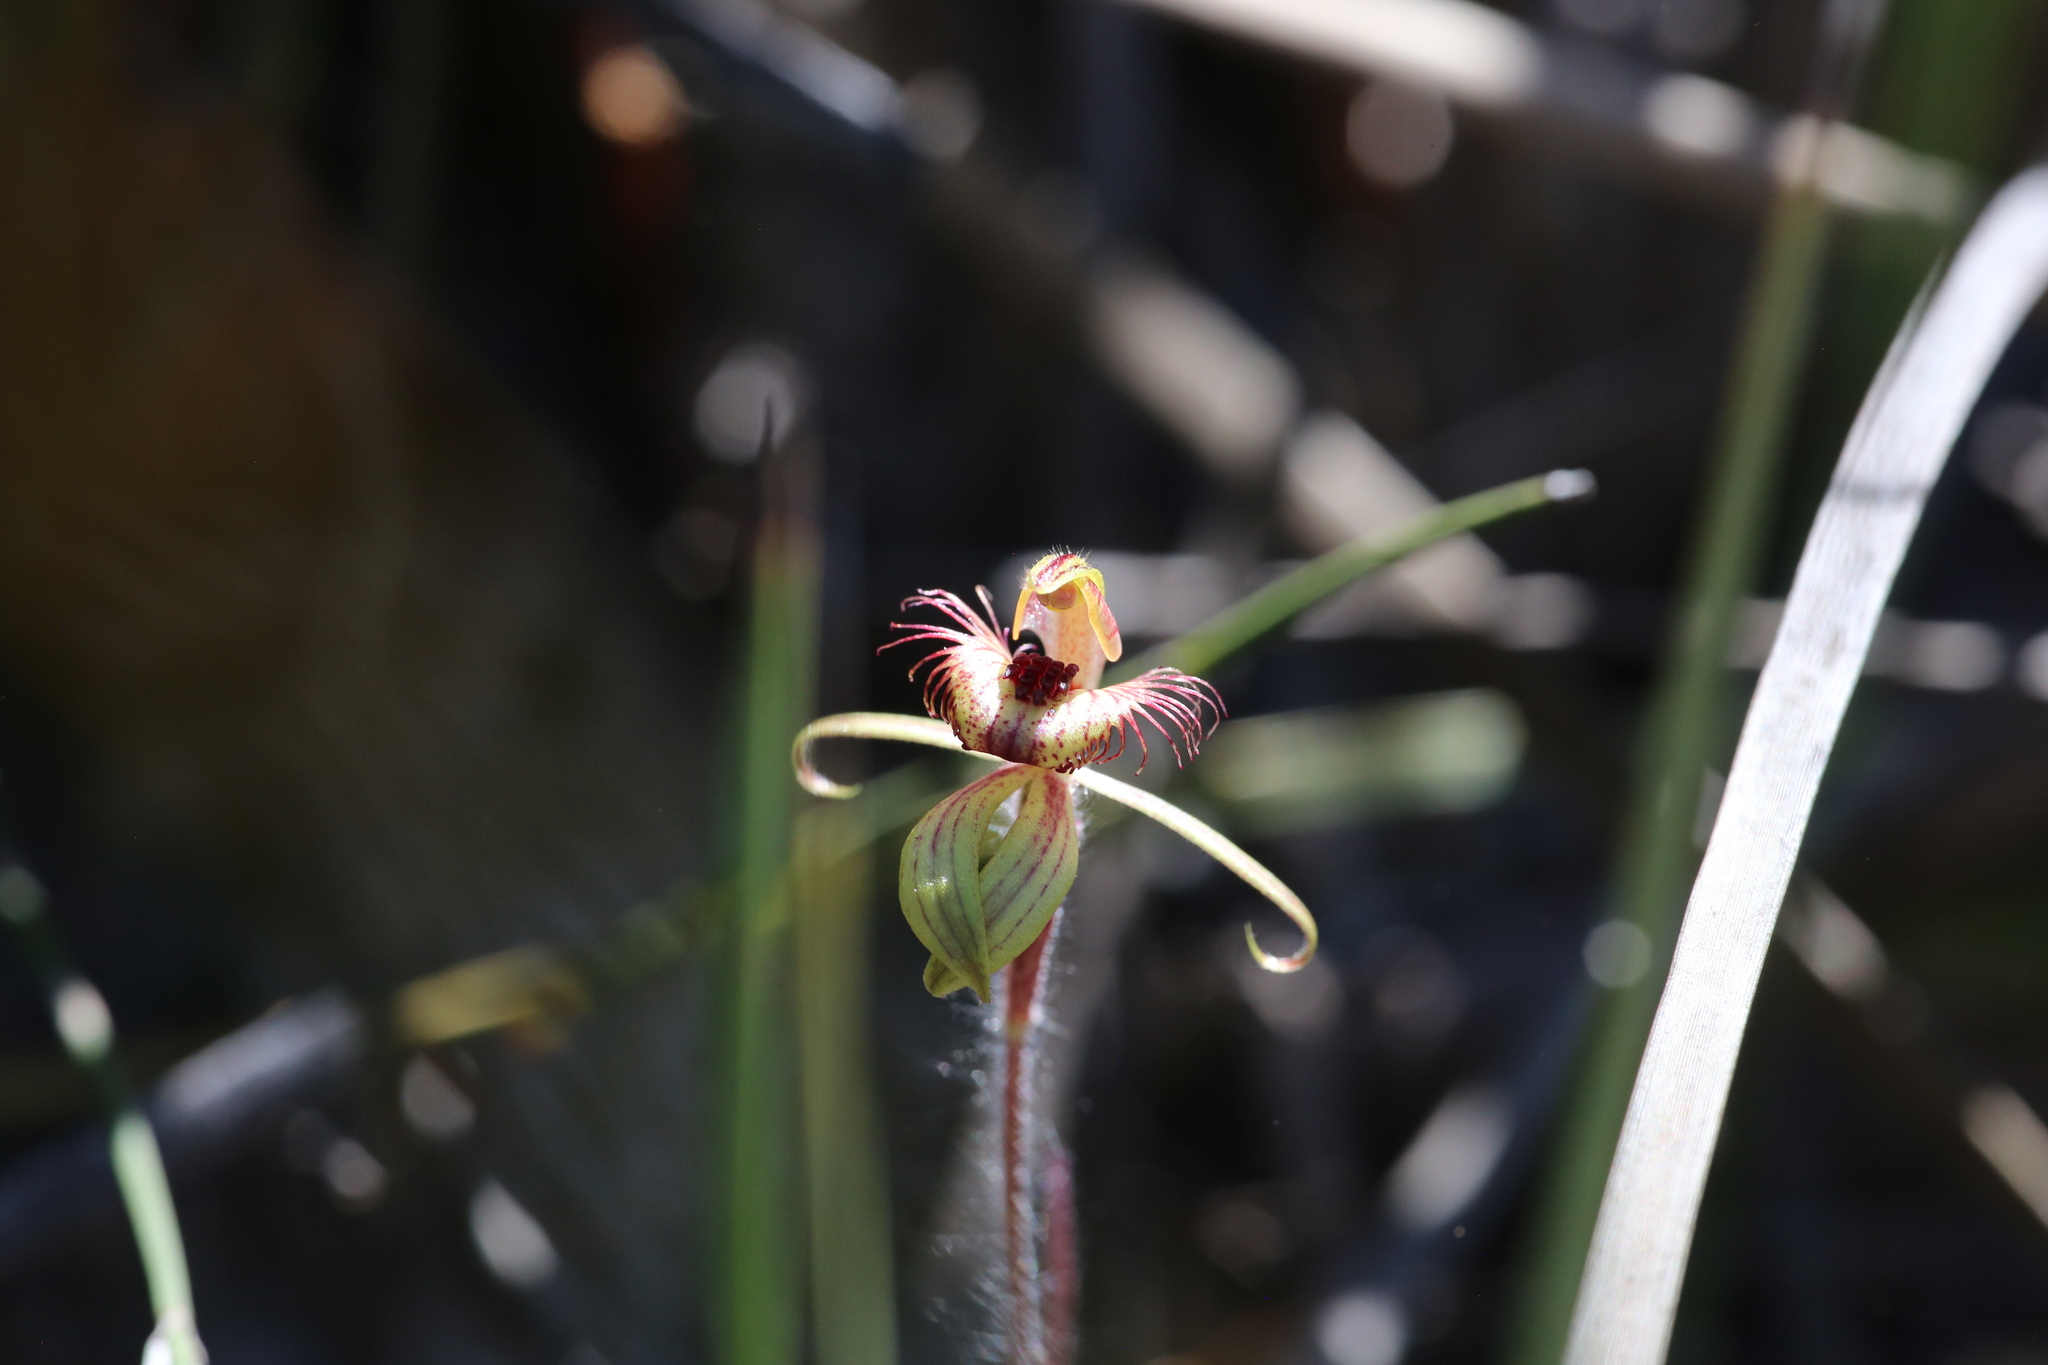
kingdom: Plantae
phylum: Tracheophyta
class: Liliopsida
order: Asparagales
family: Orchidaceae
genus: Caladenia
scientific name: Caladenia discoidea
